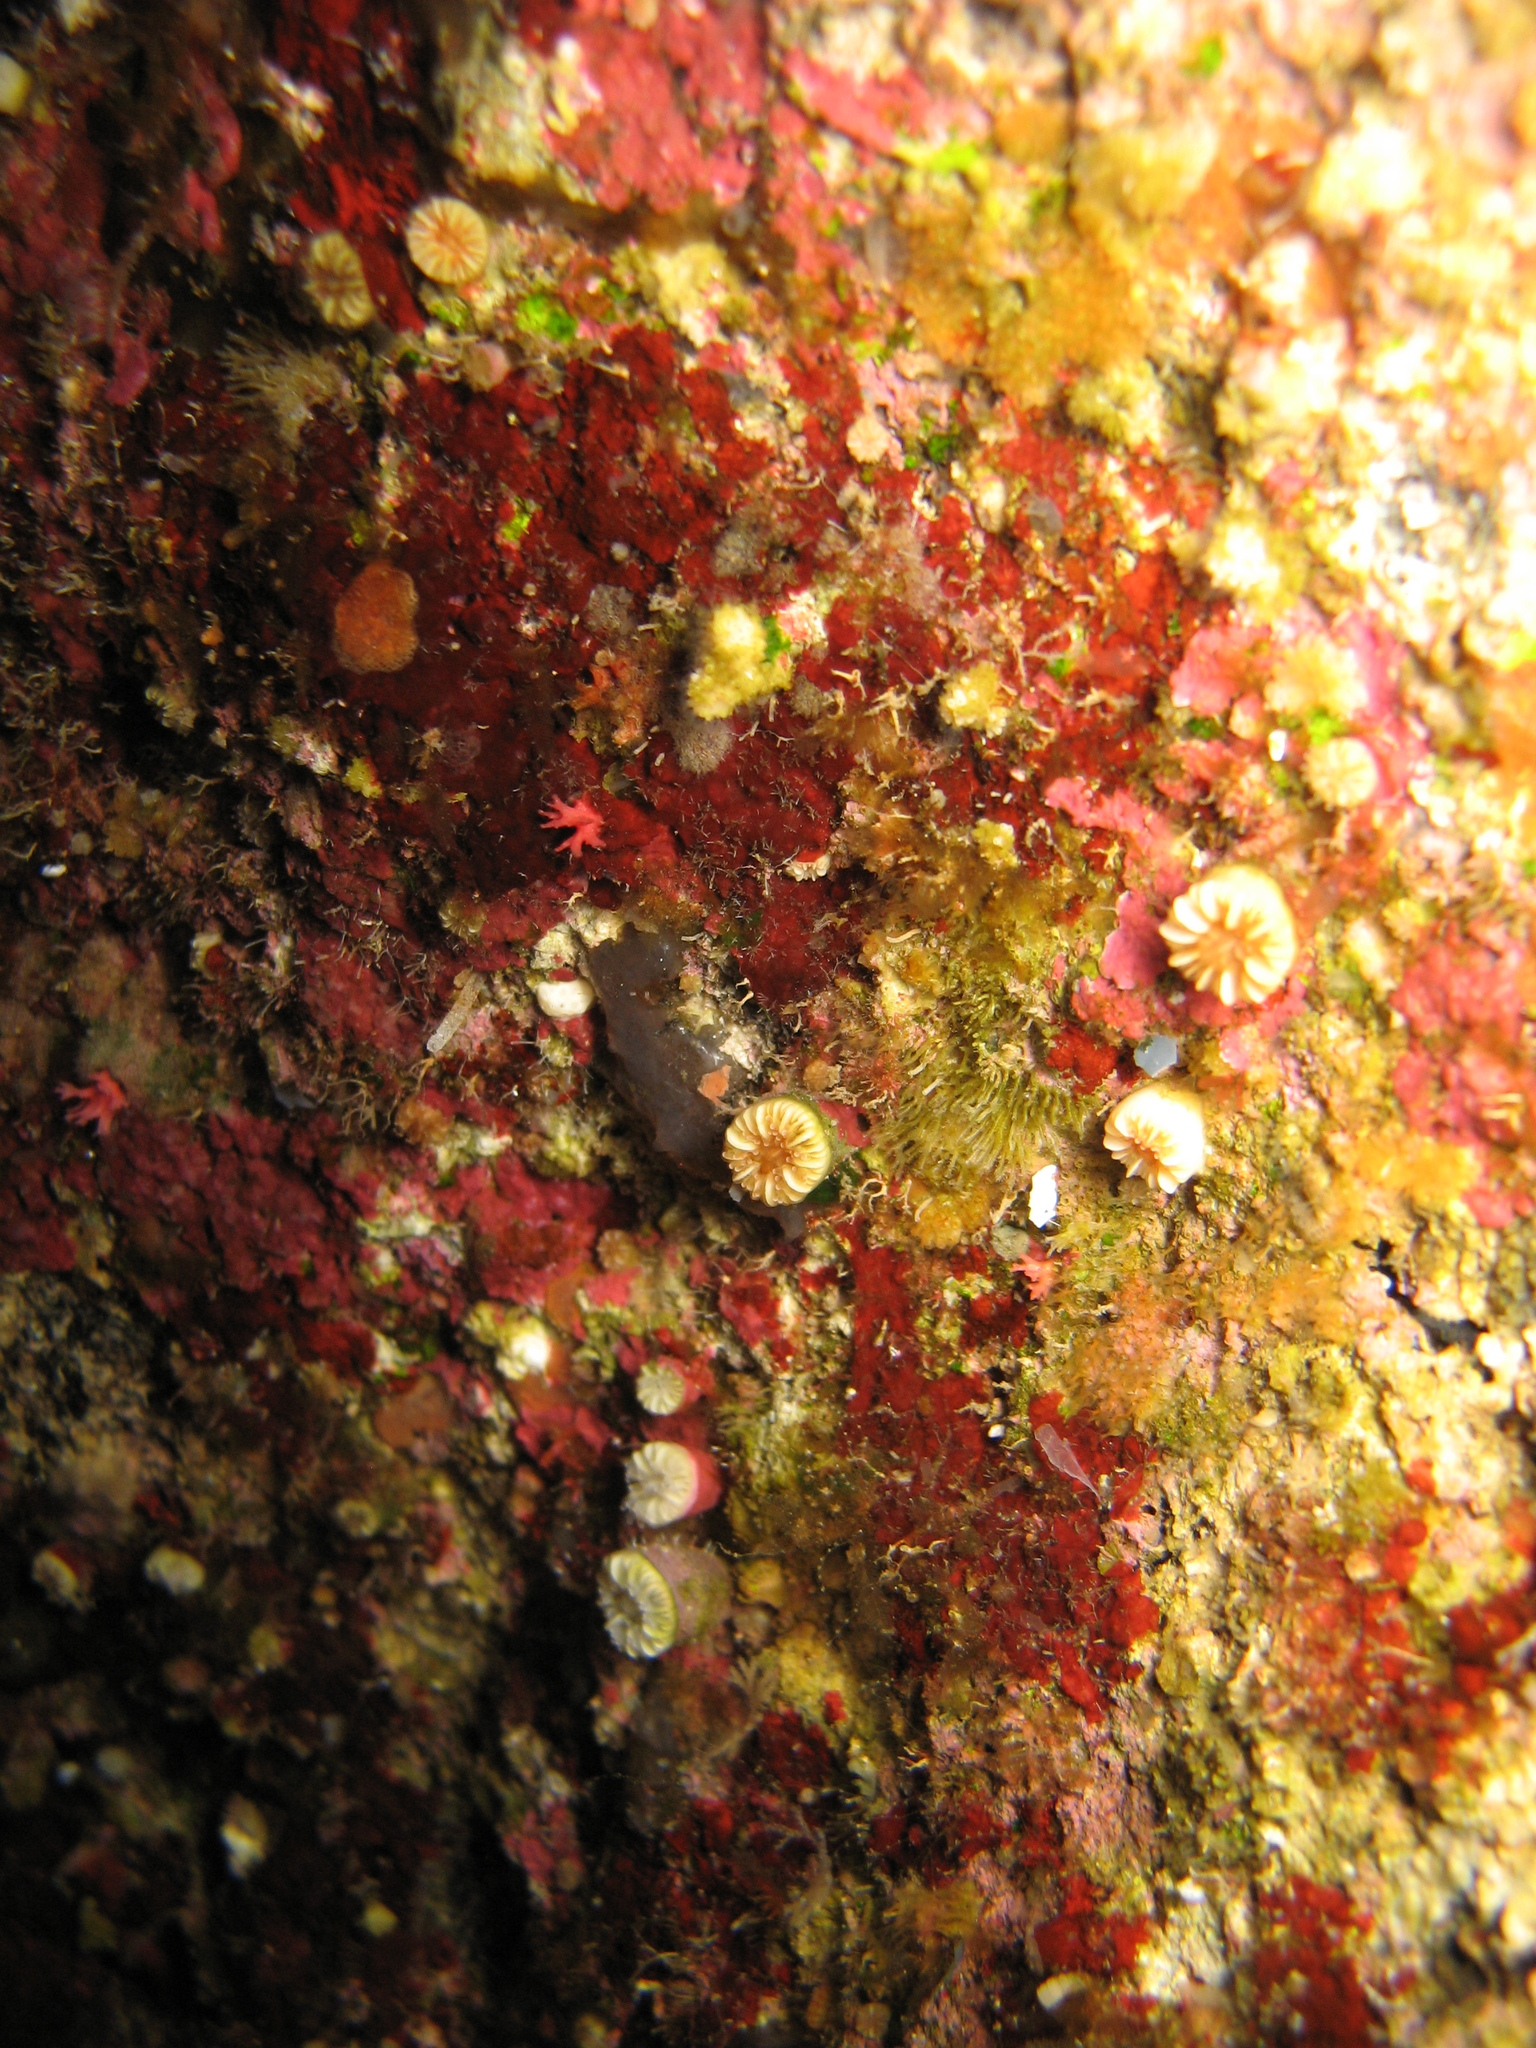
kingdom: Animalia
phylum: Cnidaria
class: Anthozoa
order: Scleractinia
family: Caryophylliidae
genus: Caryophyllia
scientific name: Caryophyllia inornata
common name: Circular cupcoral
